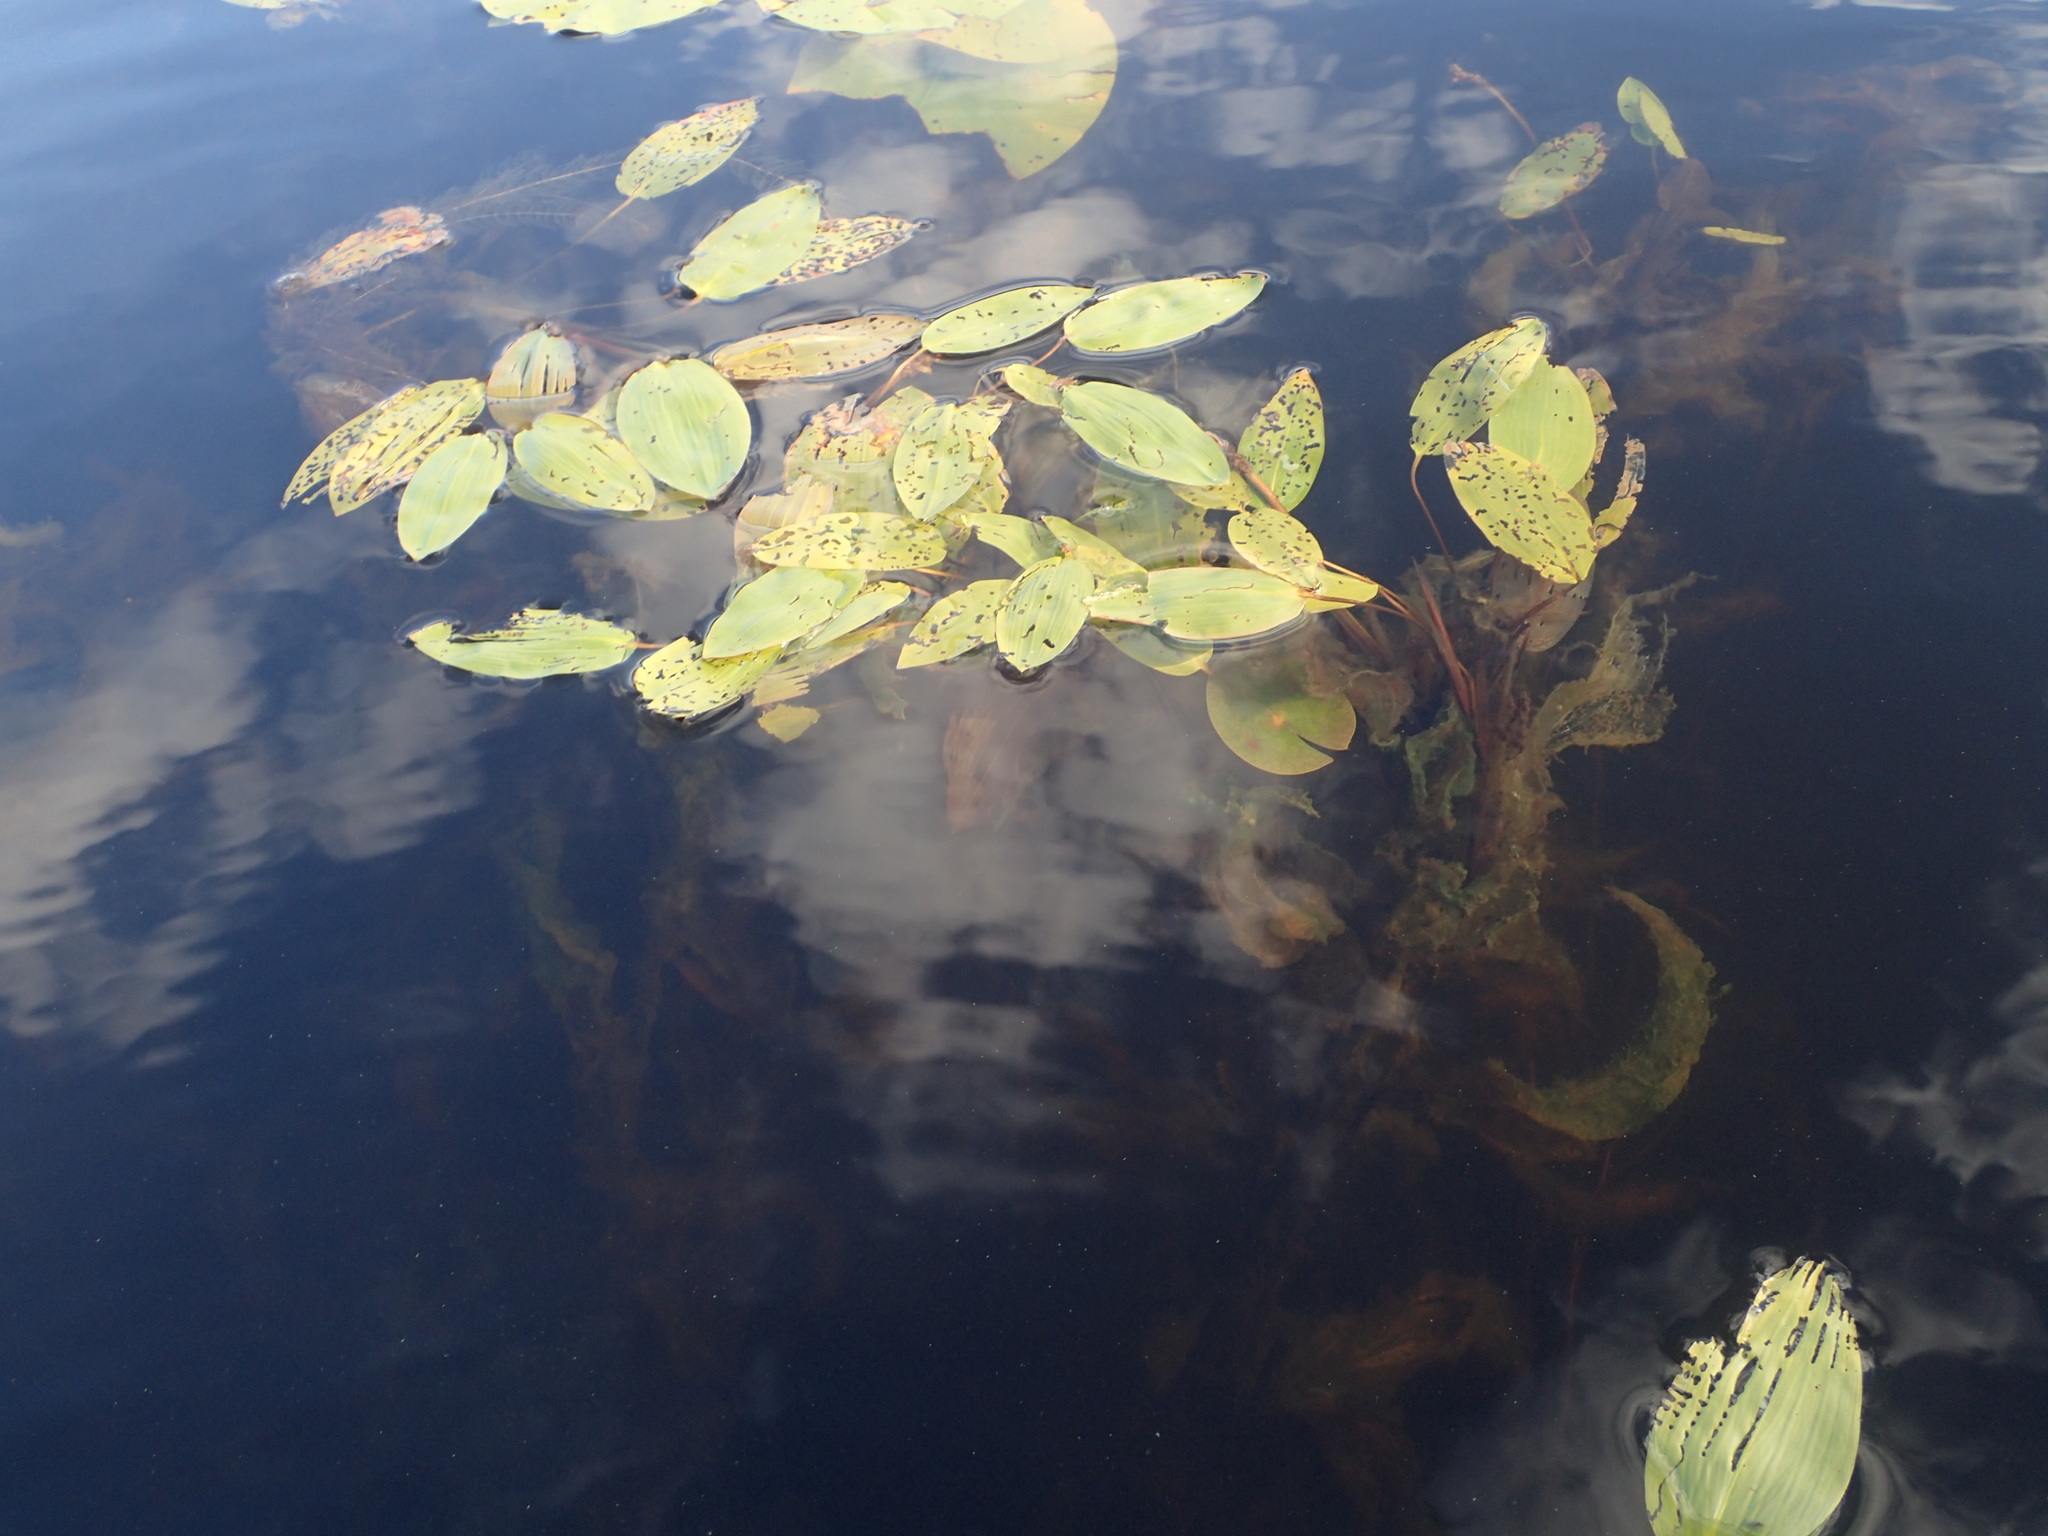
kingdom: Plantae
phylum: Tracheophyta
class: Liliopsida
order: Alismatales
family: Potamogetonaceae
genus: Potamogeton
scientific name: Potamogeton amplifolius
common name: Broad-leaved pondweed
